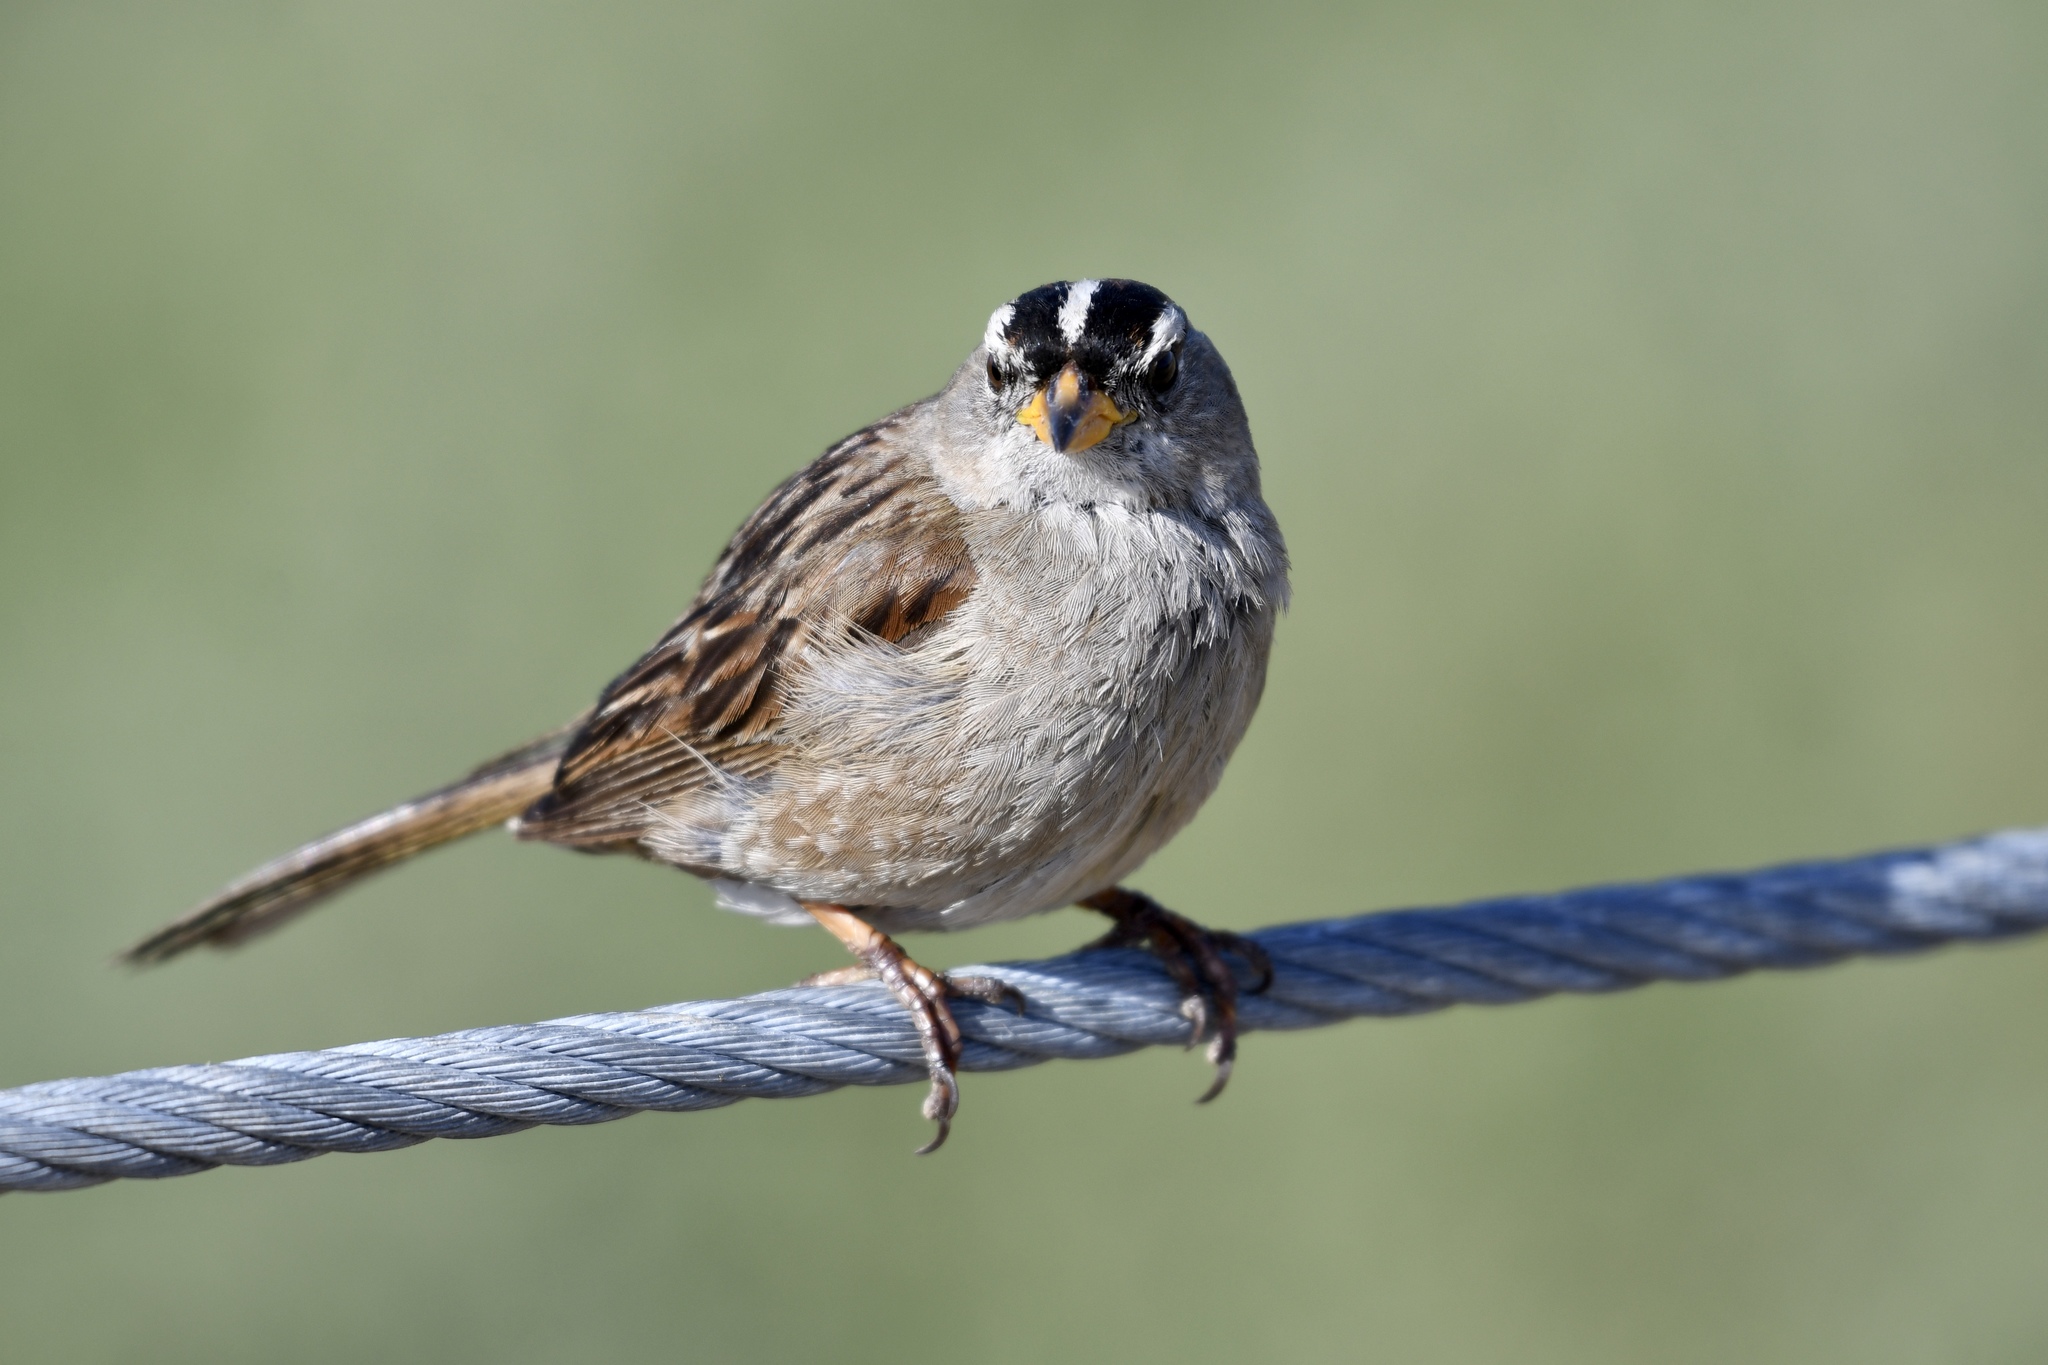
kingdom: Animalia
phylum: Chordata
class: Aves
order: Passeriformes
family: Passerellidae
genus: Zonotrichia
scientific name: Zonotrichia leucophrys
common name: White-crowned sparrow
